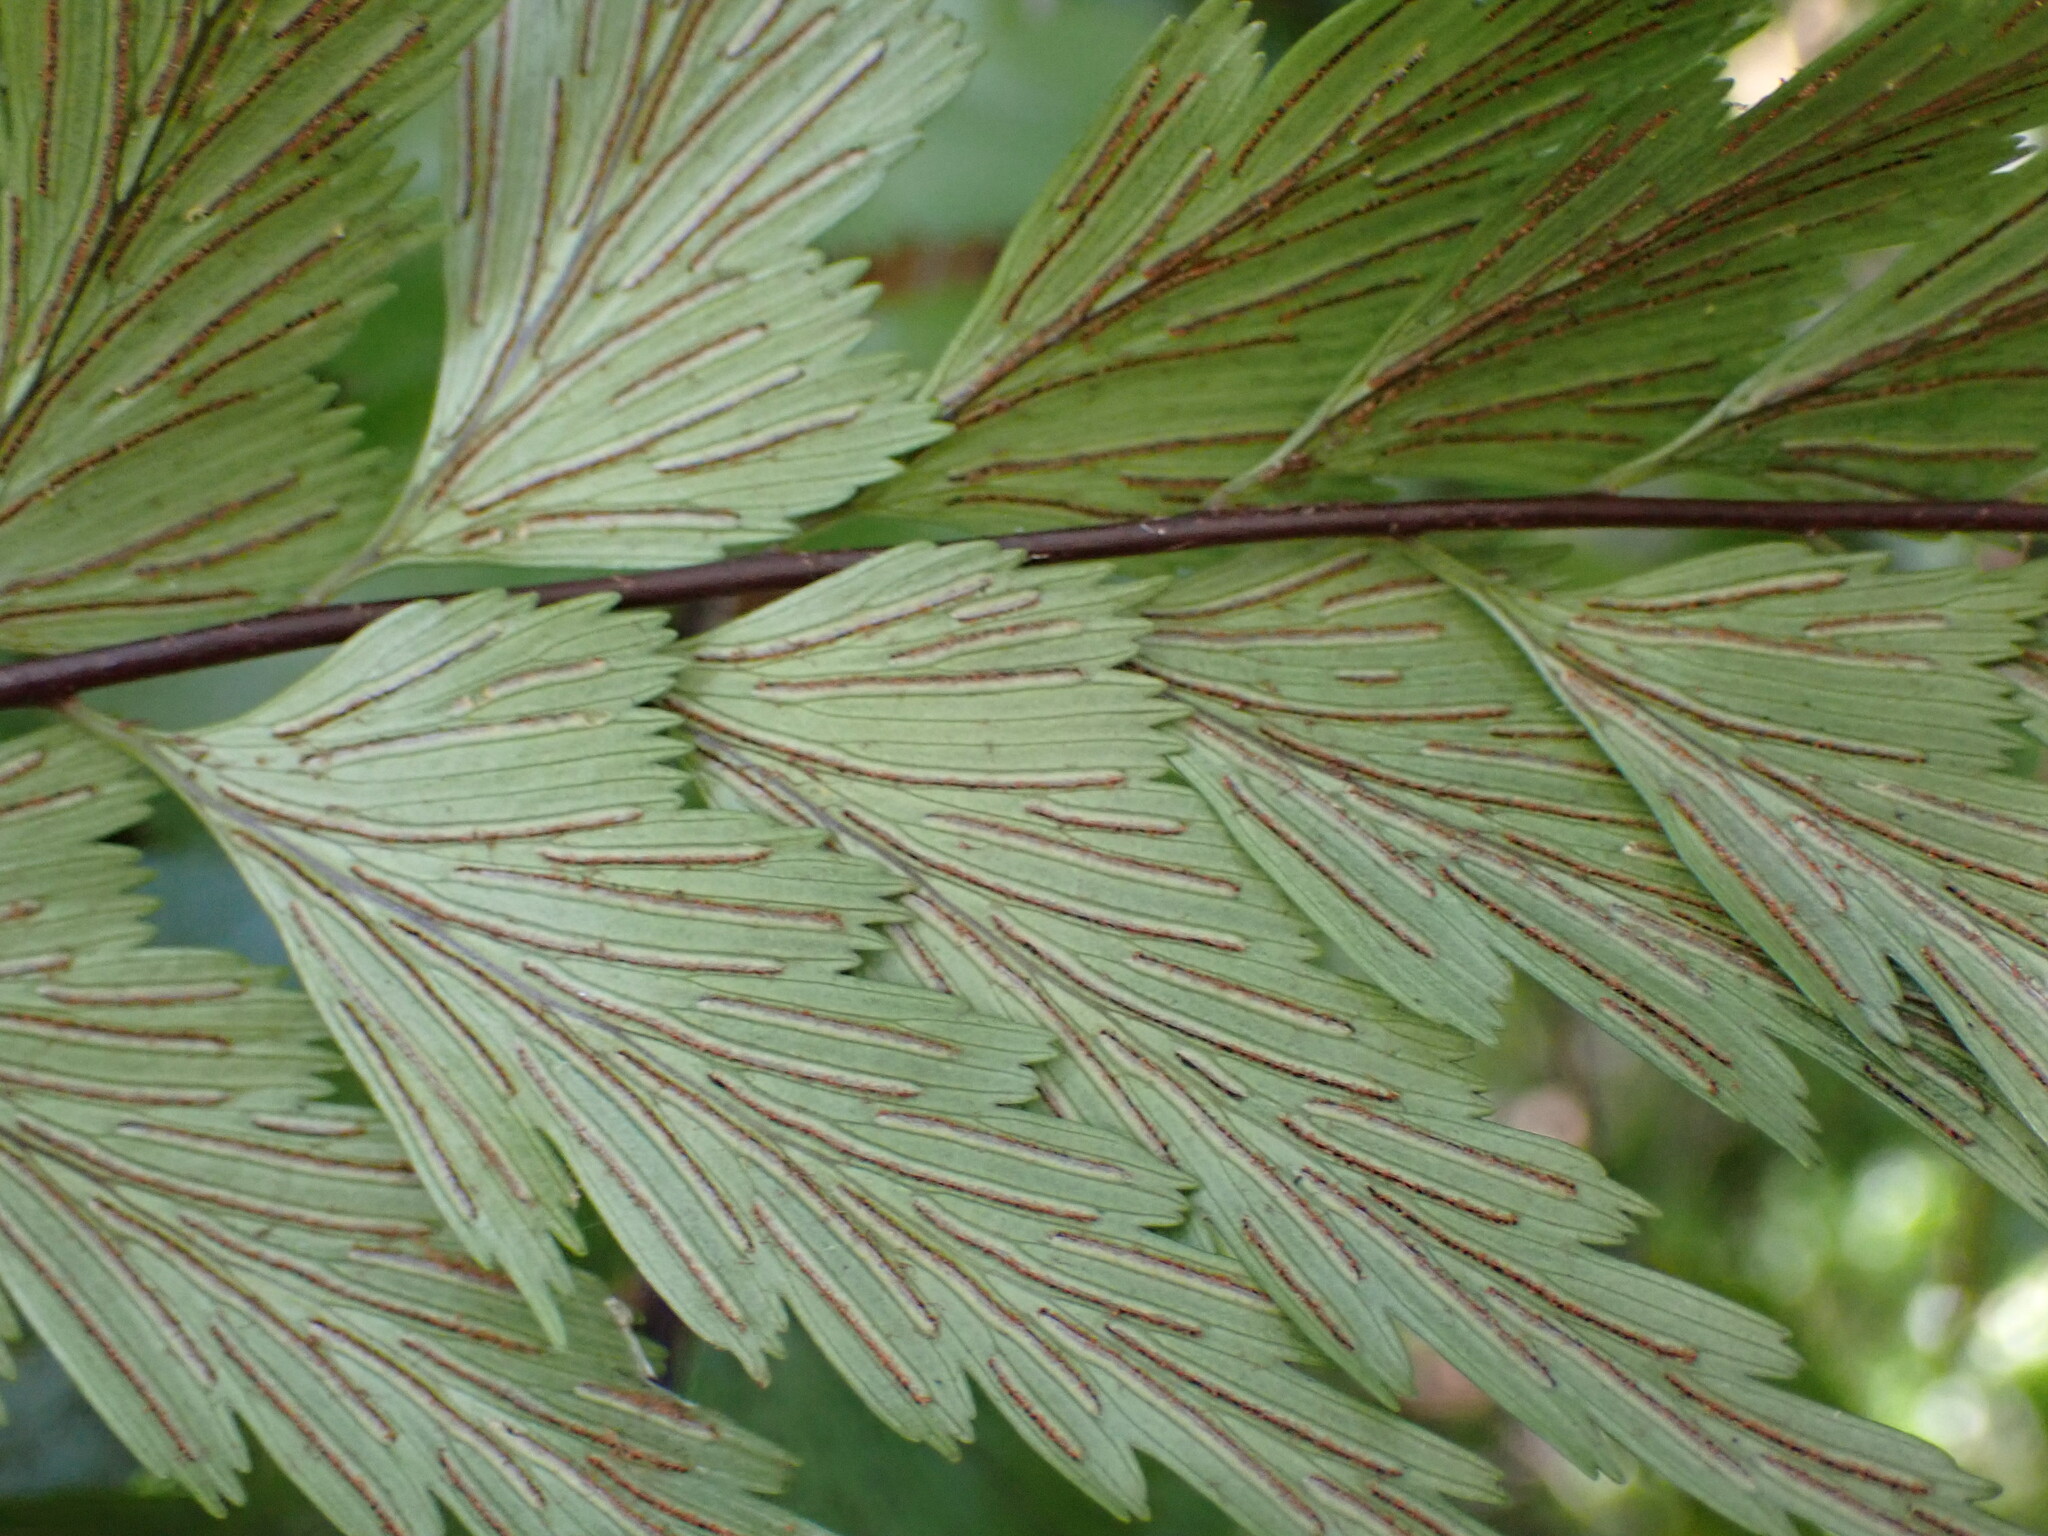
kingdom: Plantae
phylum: Tracheophyta
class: Polypodiopsida
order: Polypodiales
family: Aspleniaceae
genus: Asplenium
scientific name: Asplenium polyodon
